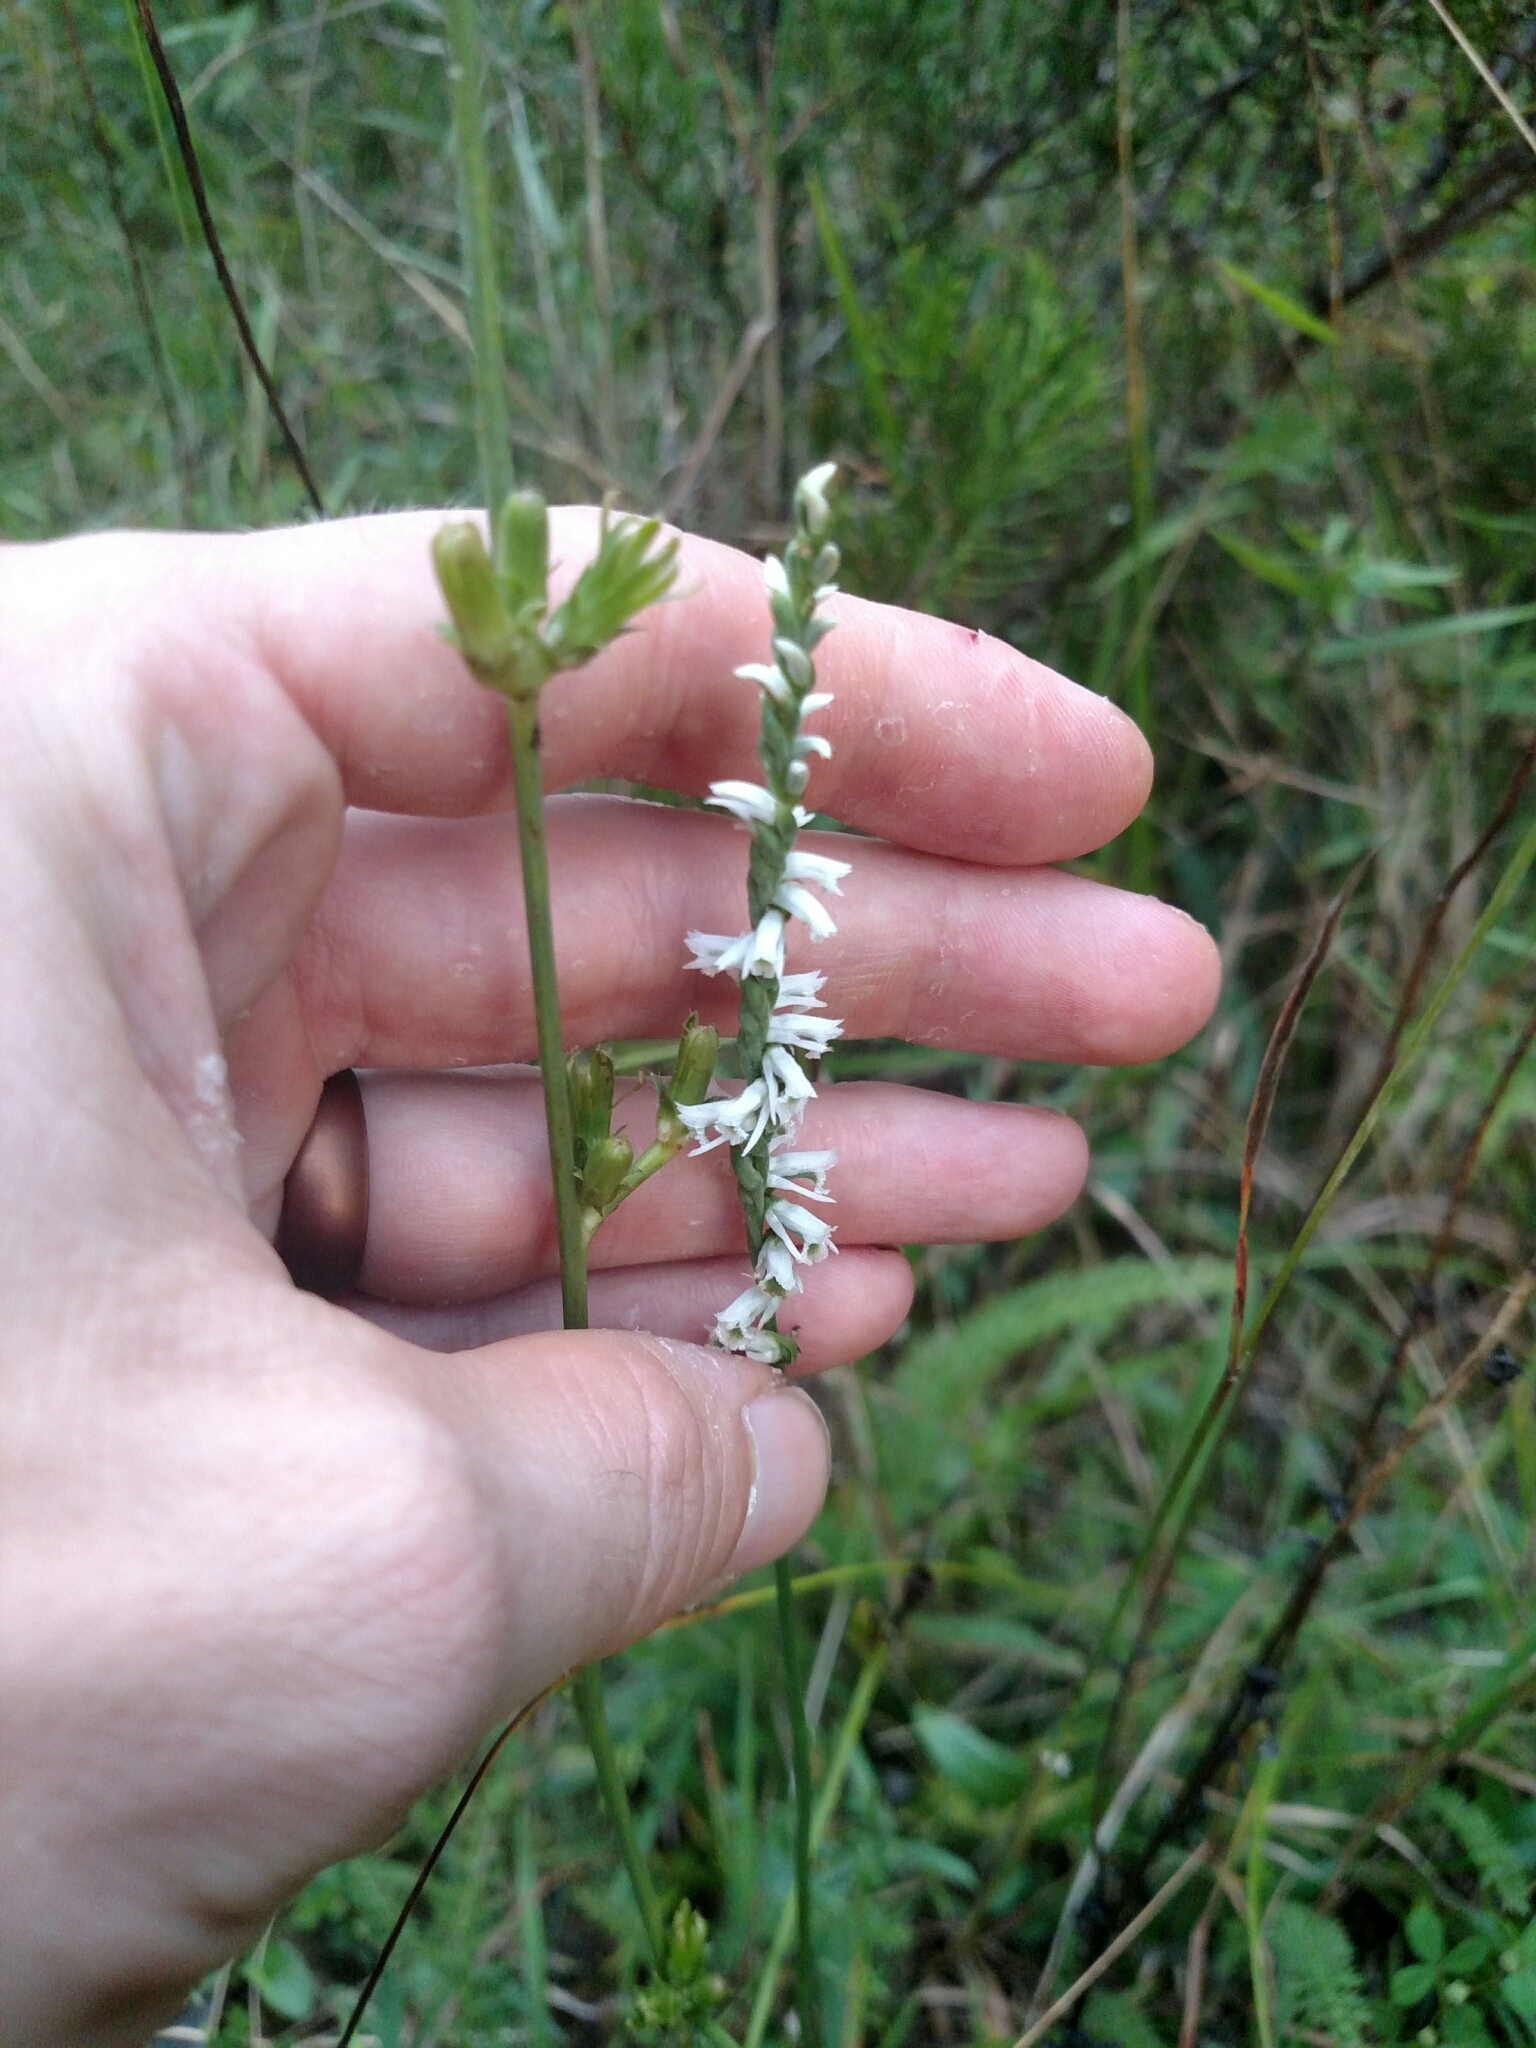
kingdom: Plantae
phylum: Tracheophyta
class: Liliopsida
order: Asparagales
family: Orchidaceae
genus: Spiranthes
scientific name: Spiranthes lacera
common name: Northern slender ladies'-tresses
